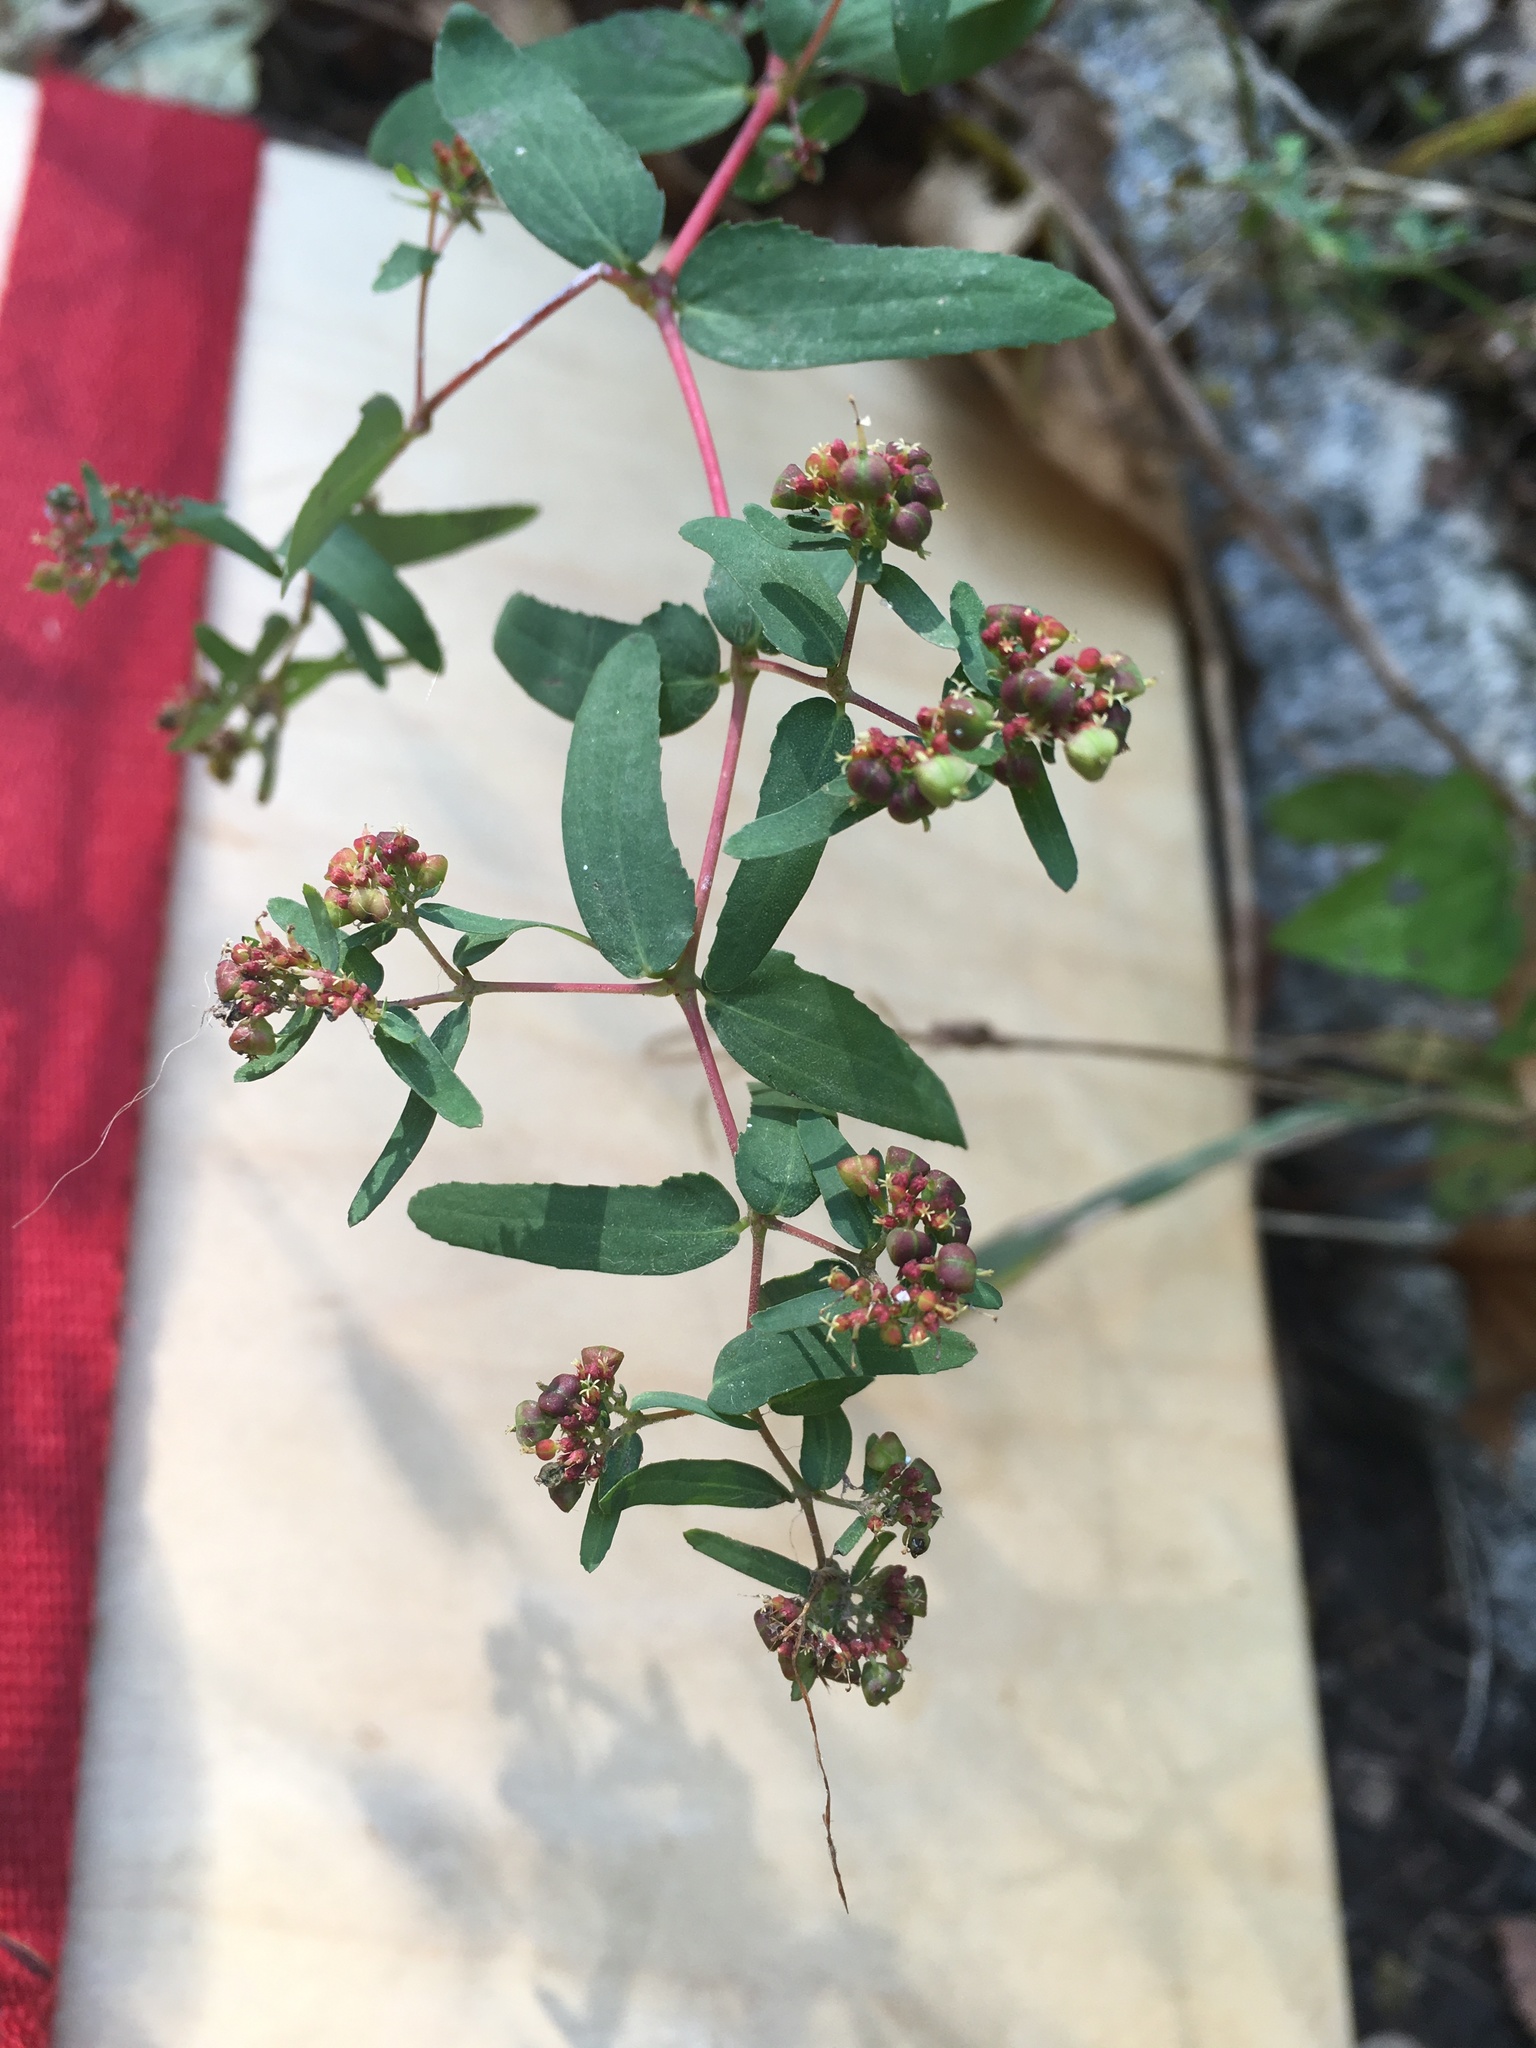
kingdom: Plantae
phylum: Tracheophyta
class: Magnoliopsida
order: Malpighiales
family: Euphorbiaceae
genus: Euphorbia
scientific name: Euphorbia nutans
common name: Eyebane
